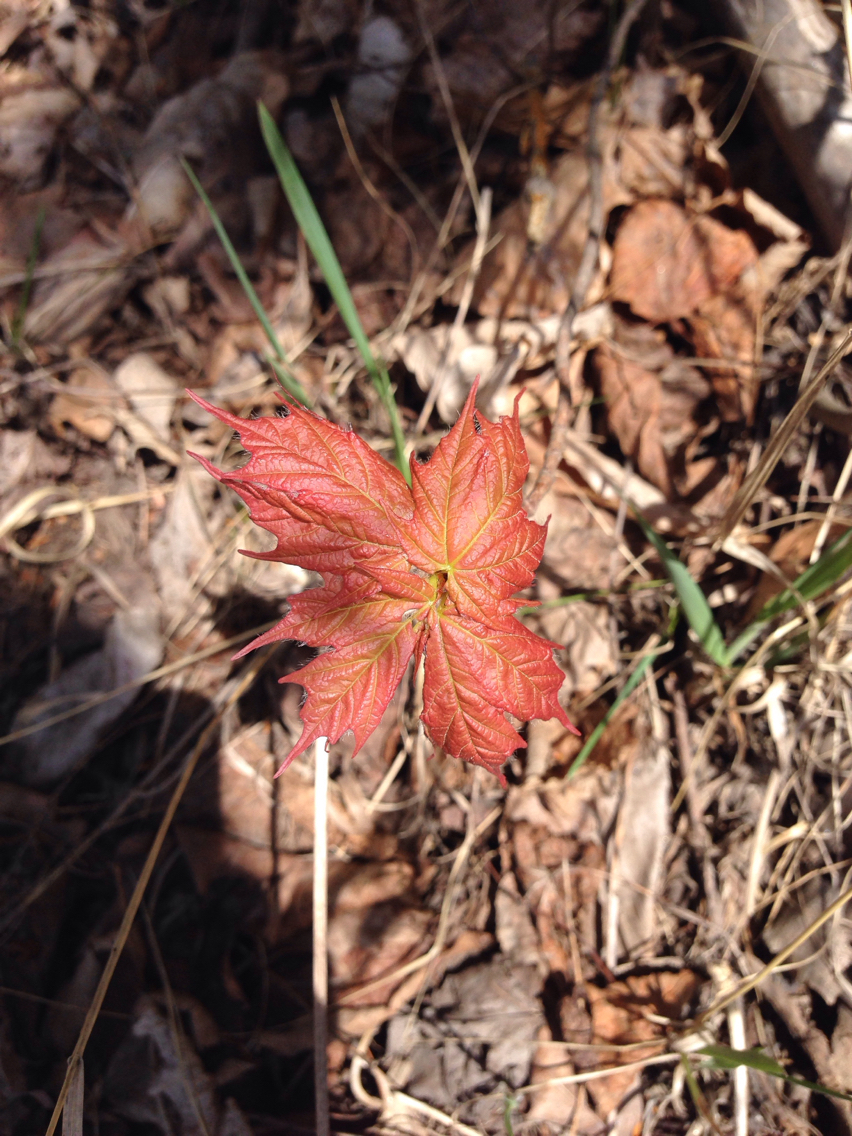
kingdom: Plantae
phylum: Tracheophyta
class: Magnoliopsida
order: Sapindales
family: Sapindaceae
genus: Acer
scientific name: Acer saccharum
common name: Sugar maple
